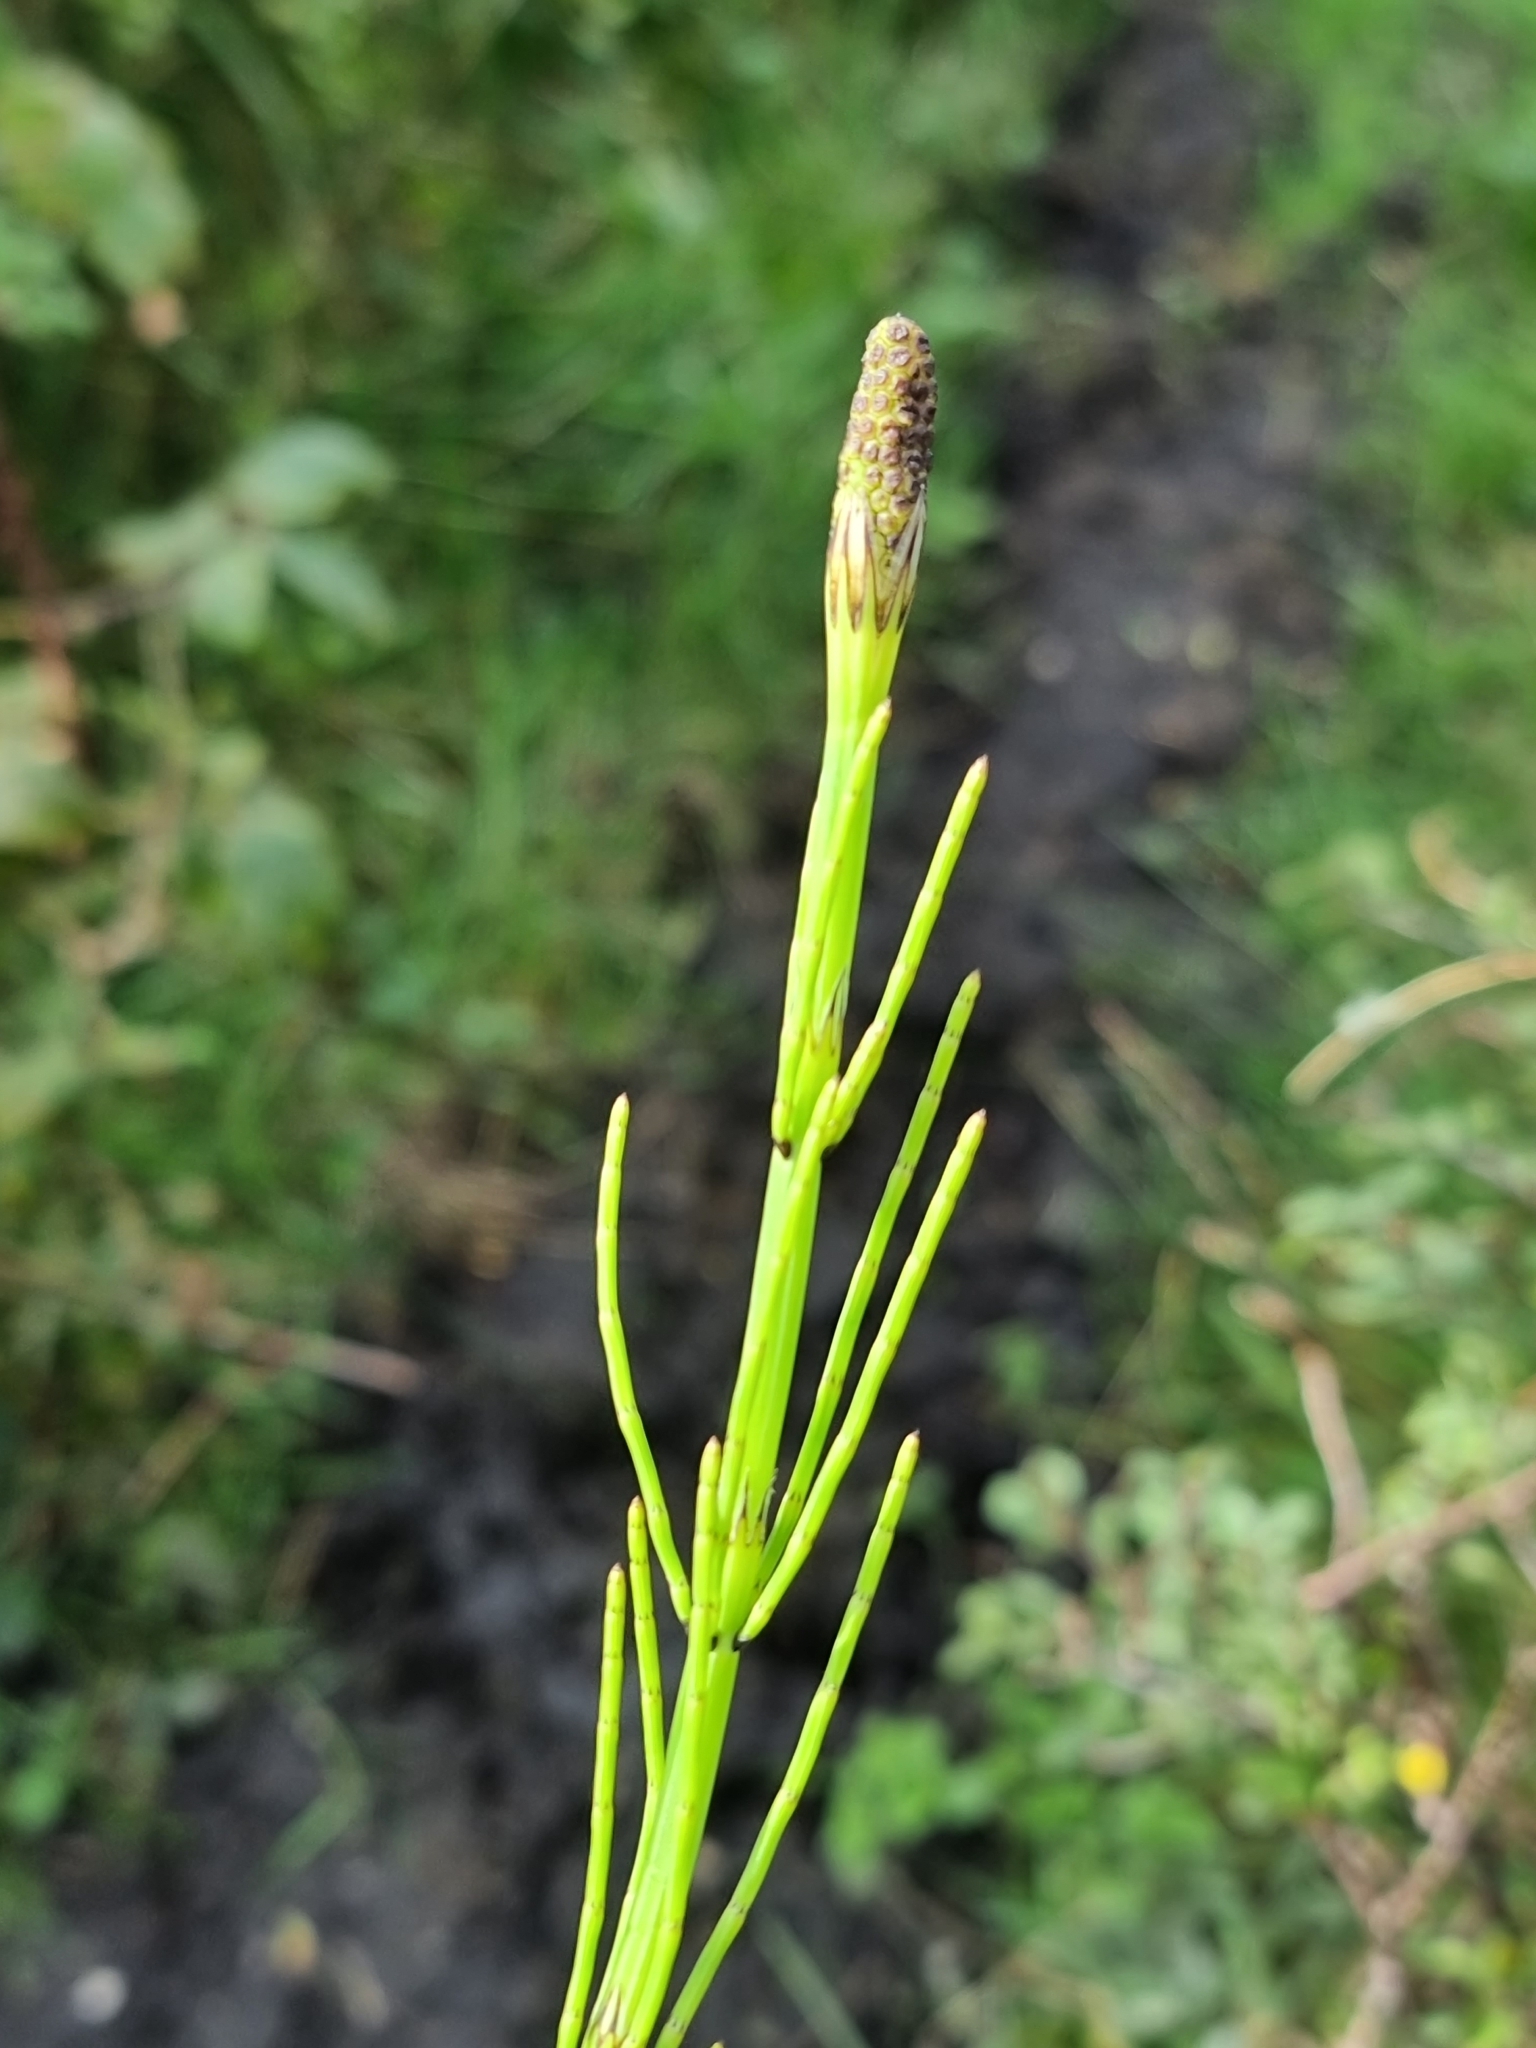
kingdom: Plantae
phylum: Tracheophyta
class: Polypodiopsida
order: Equisetales
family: Equisetaceae
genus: Equisetum
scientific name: Equisetum palustre
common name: Marsh horsetail
